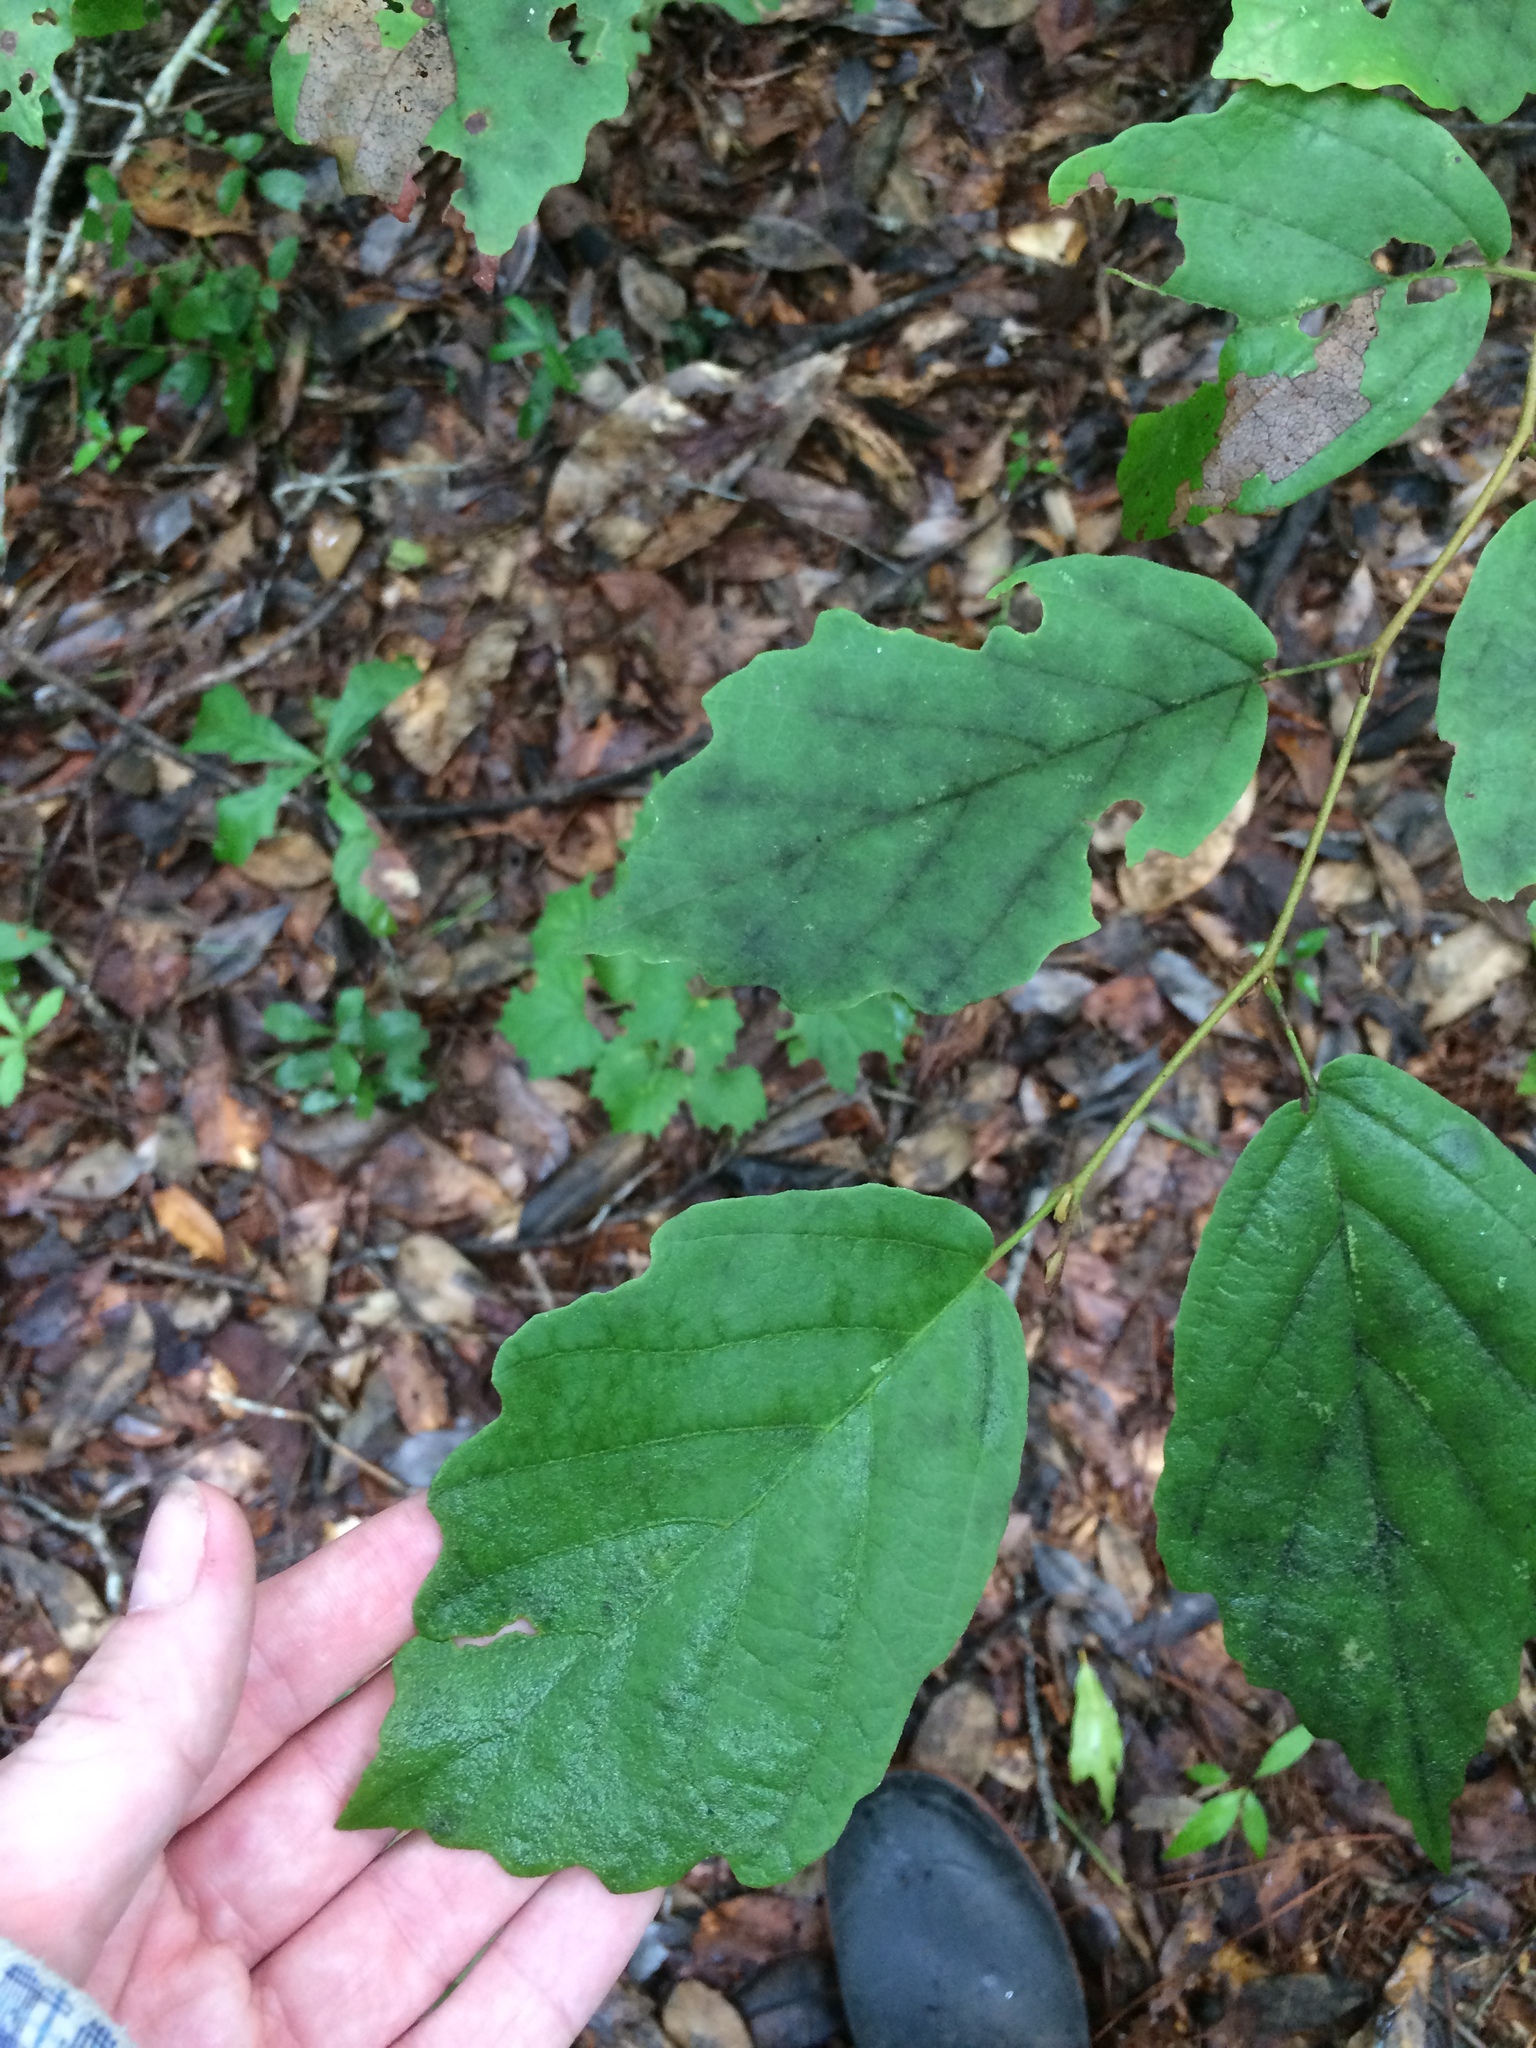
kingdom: Plantae
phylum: Tracheophyta
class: Magnoliopsida
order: Saxifragales
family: Hamamelidaceae
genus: Hamamelis
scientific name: Hamamelis virginiana
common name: Witch-hazel
